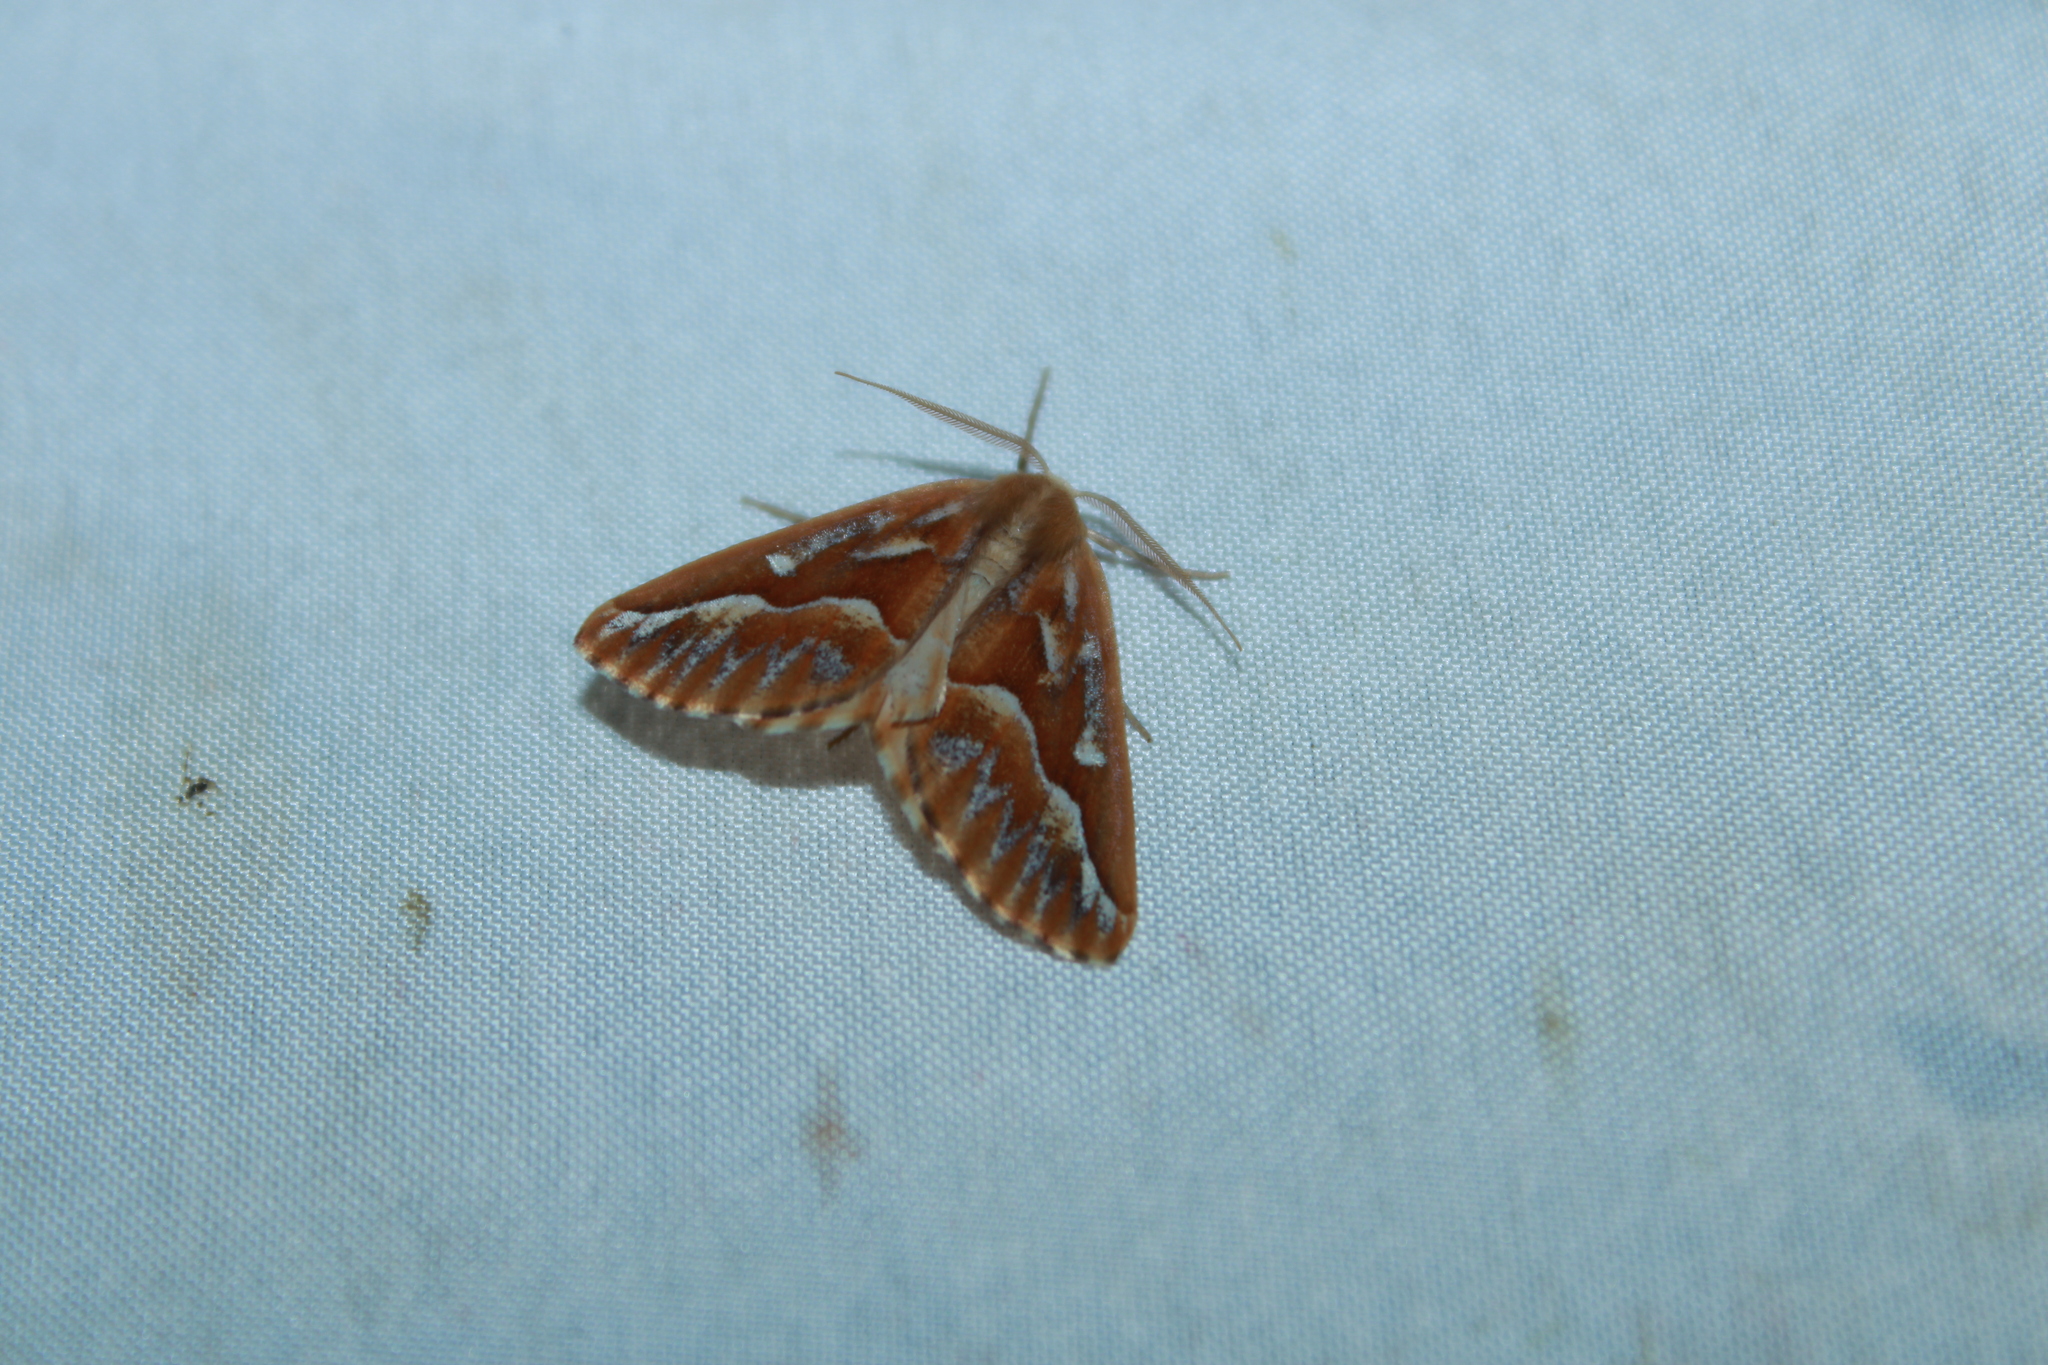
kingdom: Animalia
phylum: Arthropoda
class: Insecta
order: Lepidoptera
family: Geometridae
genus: Caripeta
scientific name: Caripeta piniata
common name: Northern pine looper moth
